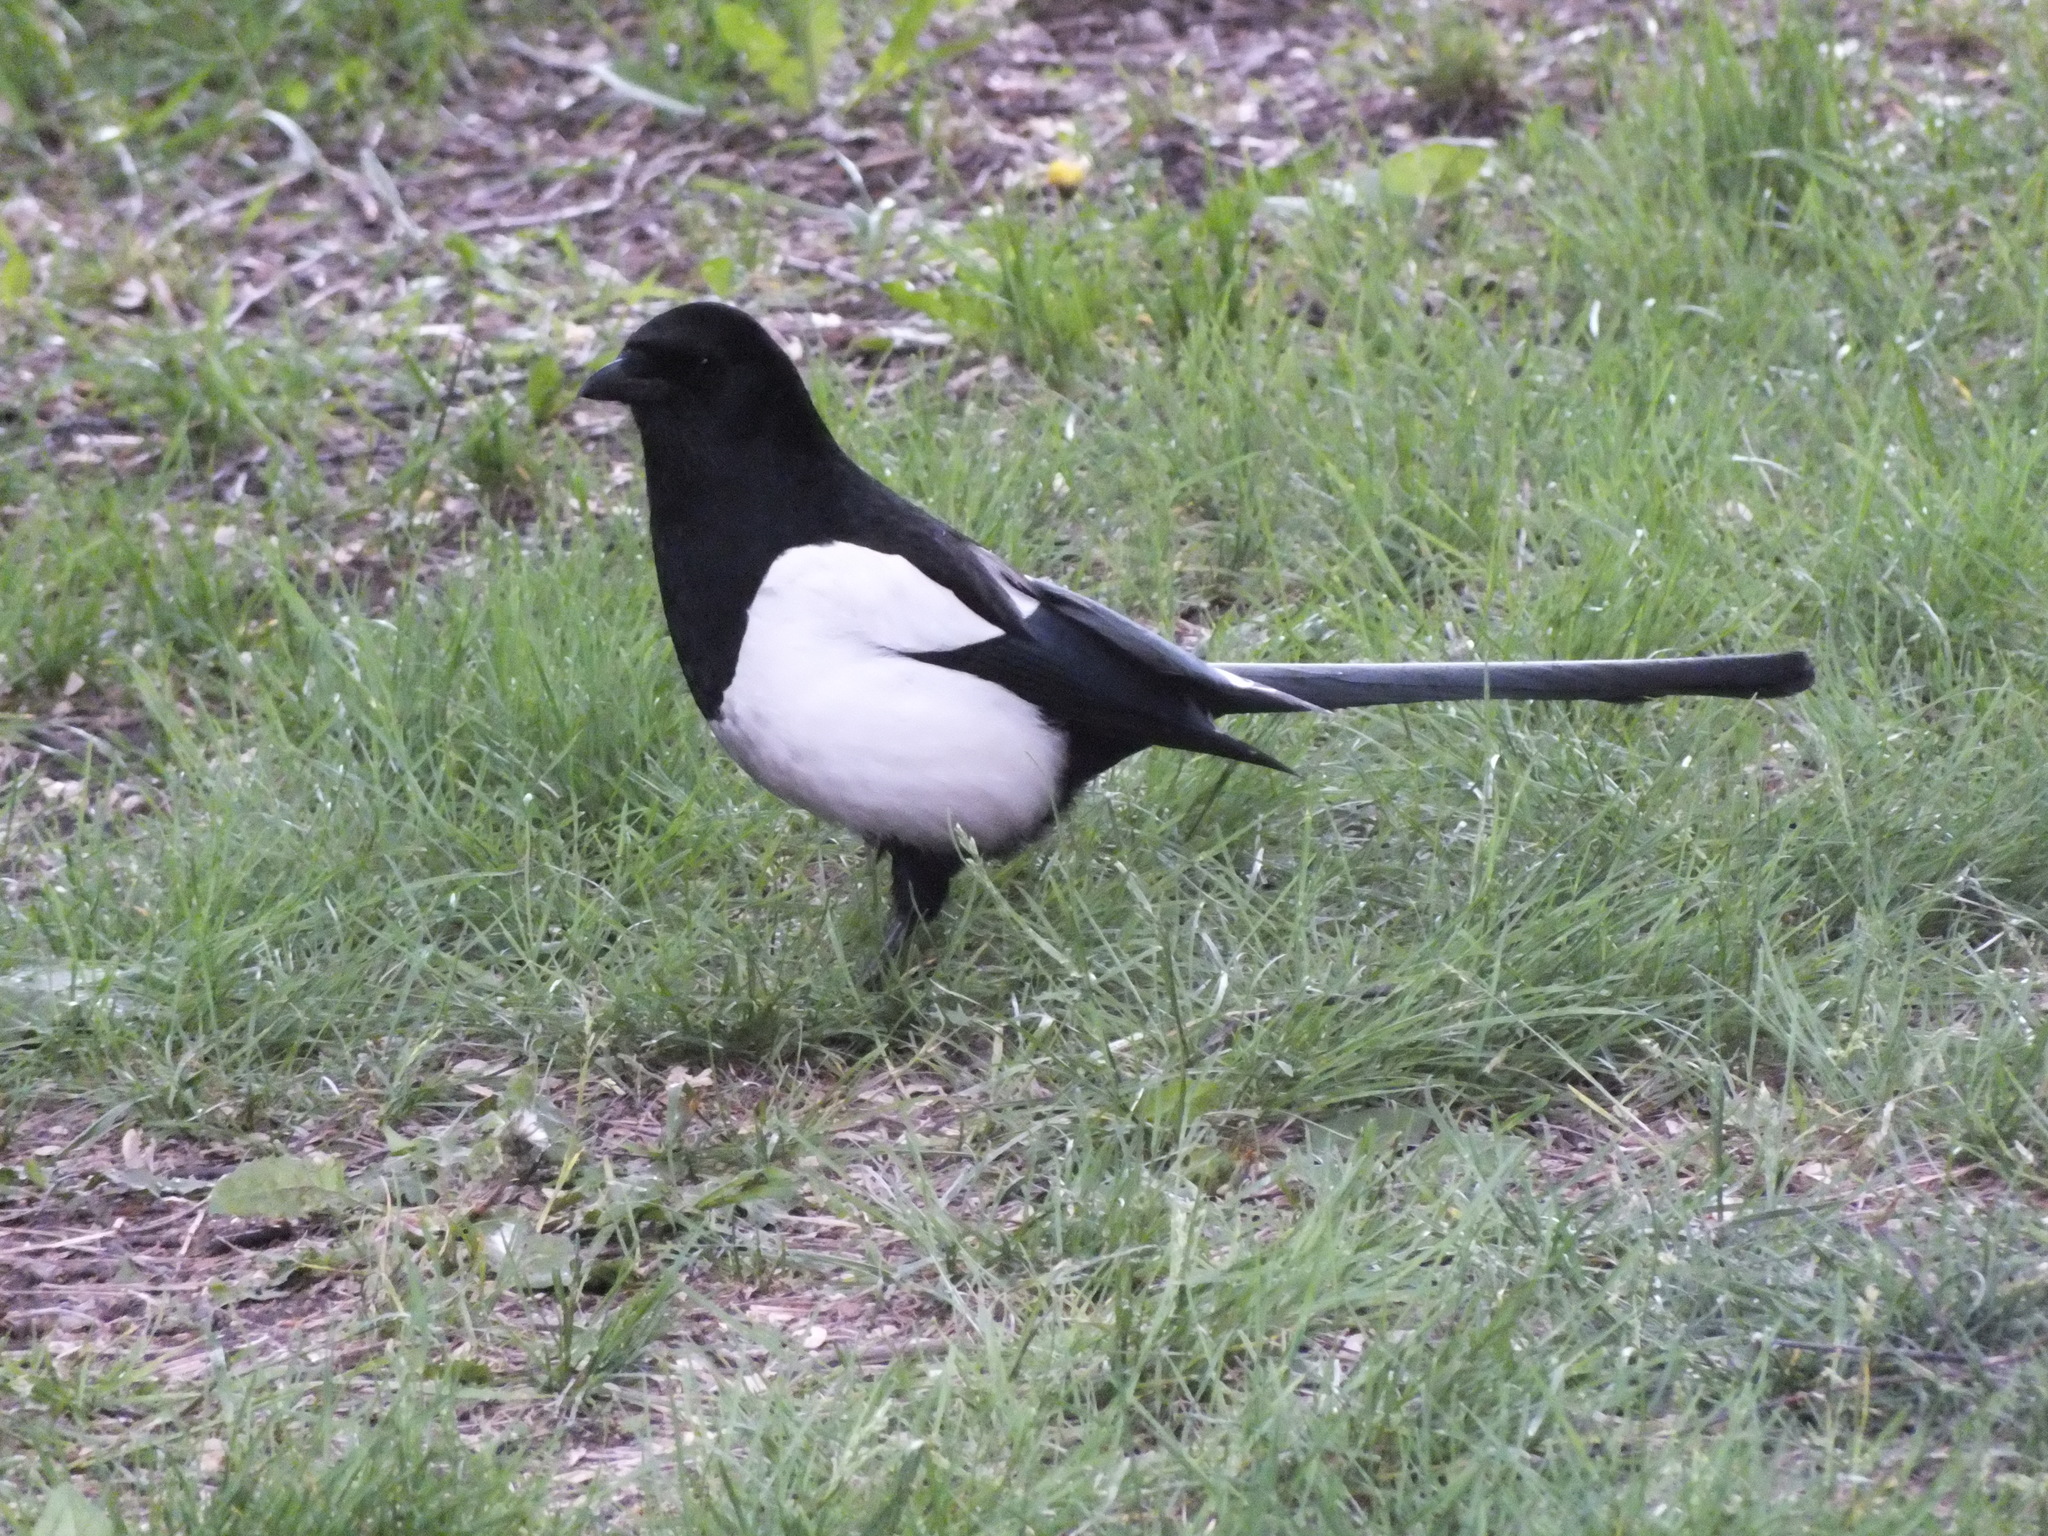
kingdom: Animalia
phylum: Chordata
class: Aves
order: Passeriformes
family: Corvidae
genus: Pica
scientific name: Pica pica
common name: Eurasian magpie
